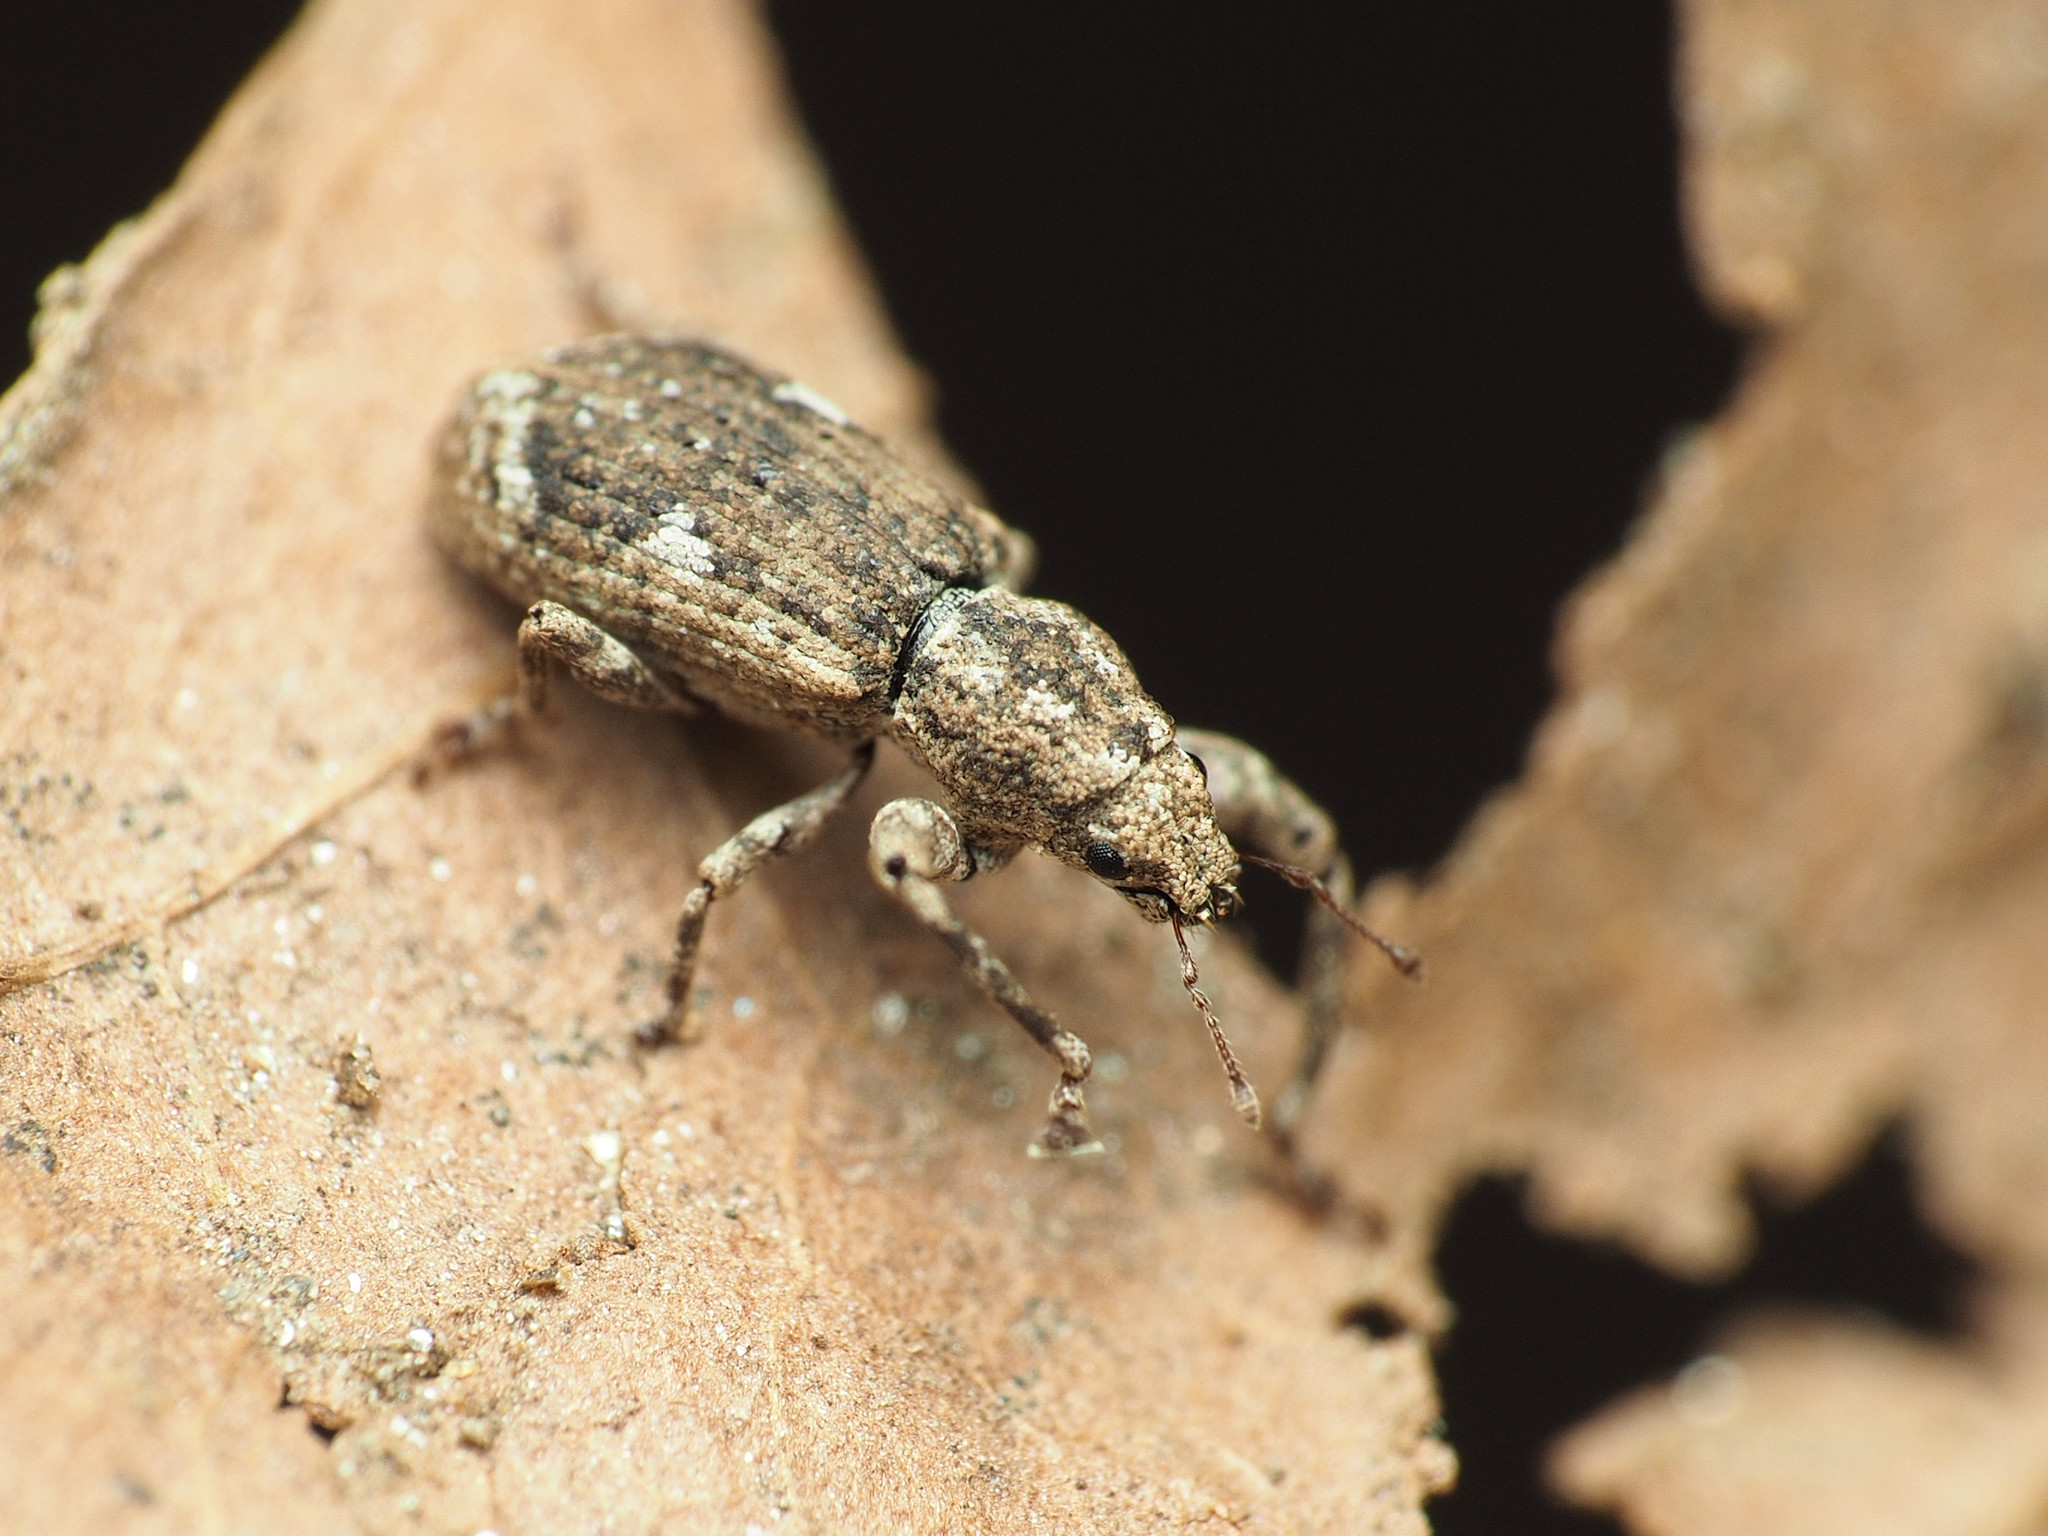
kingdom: Animalia
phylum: Arthropoda
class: Insecta
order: Coleoptera
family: Curculionidae
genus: Pandeleteius
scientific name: Pandeleteius hilaris
